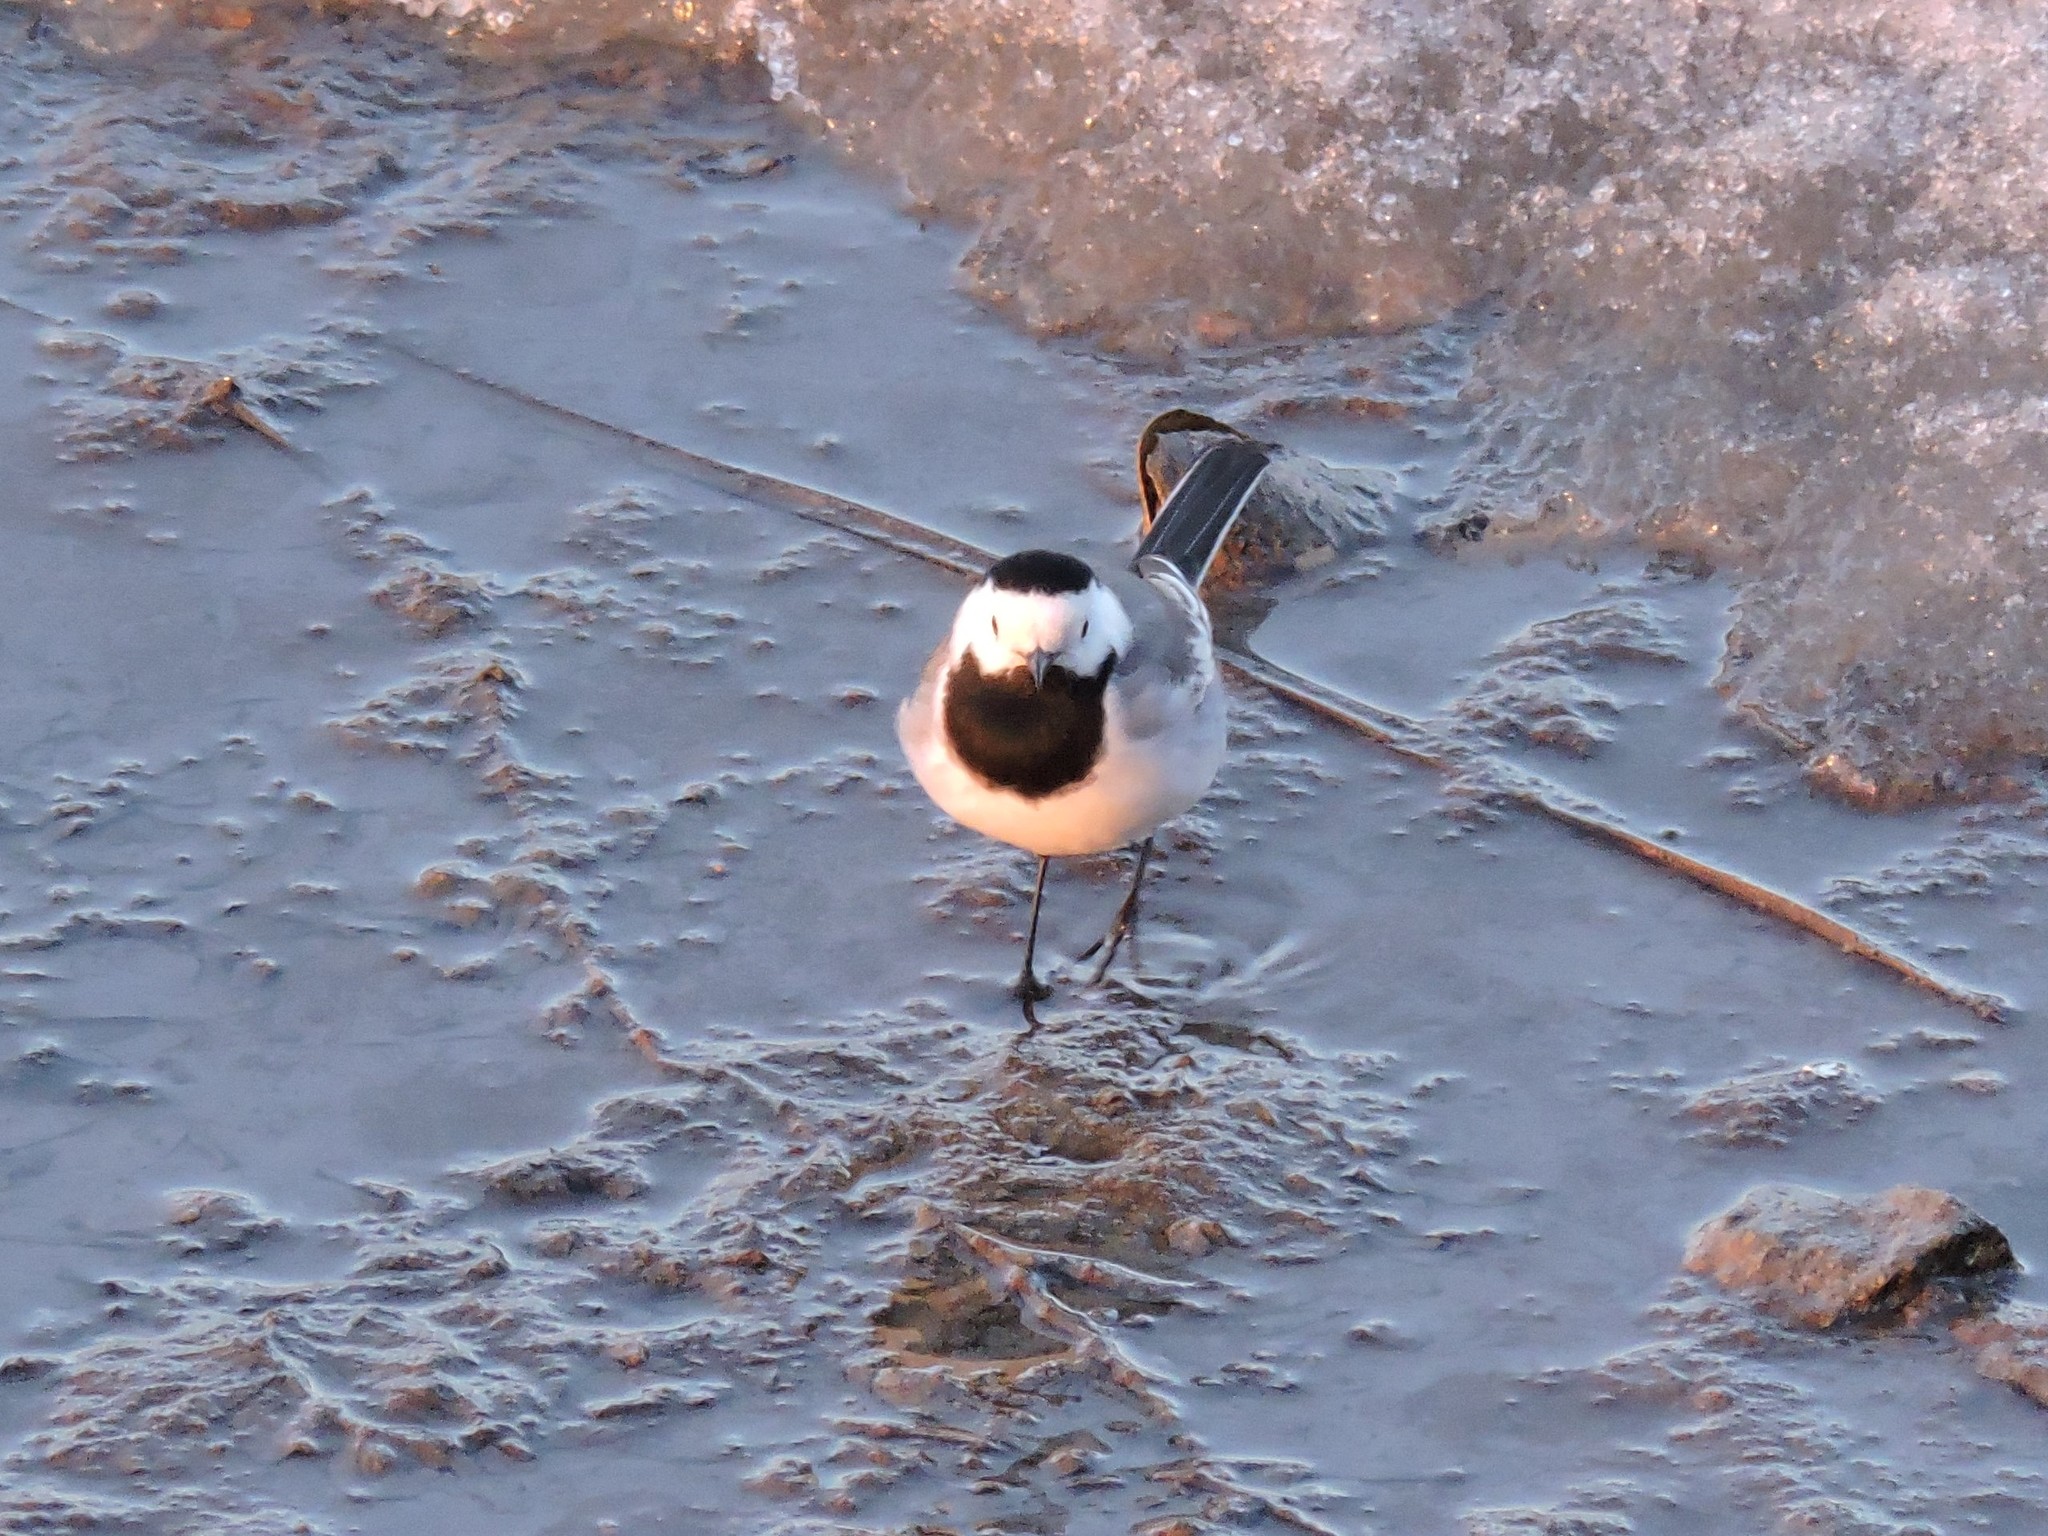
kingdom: Animalia
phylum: Chordata
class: Aves
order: Passeriformes
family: Motacillidae
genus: Motacilla
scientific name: Motacilla alba
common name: White wagtail
